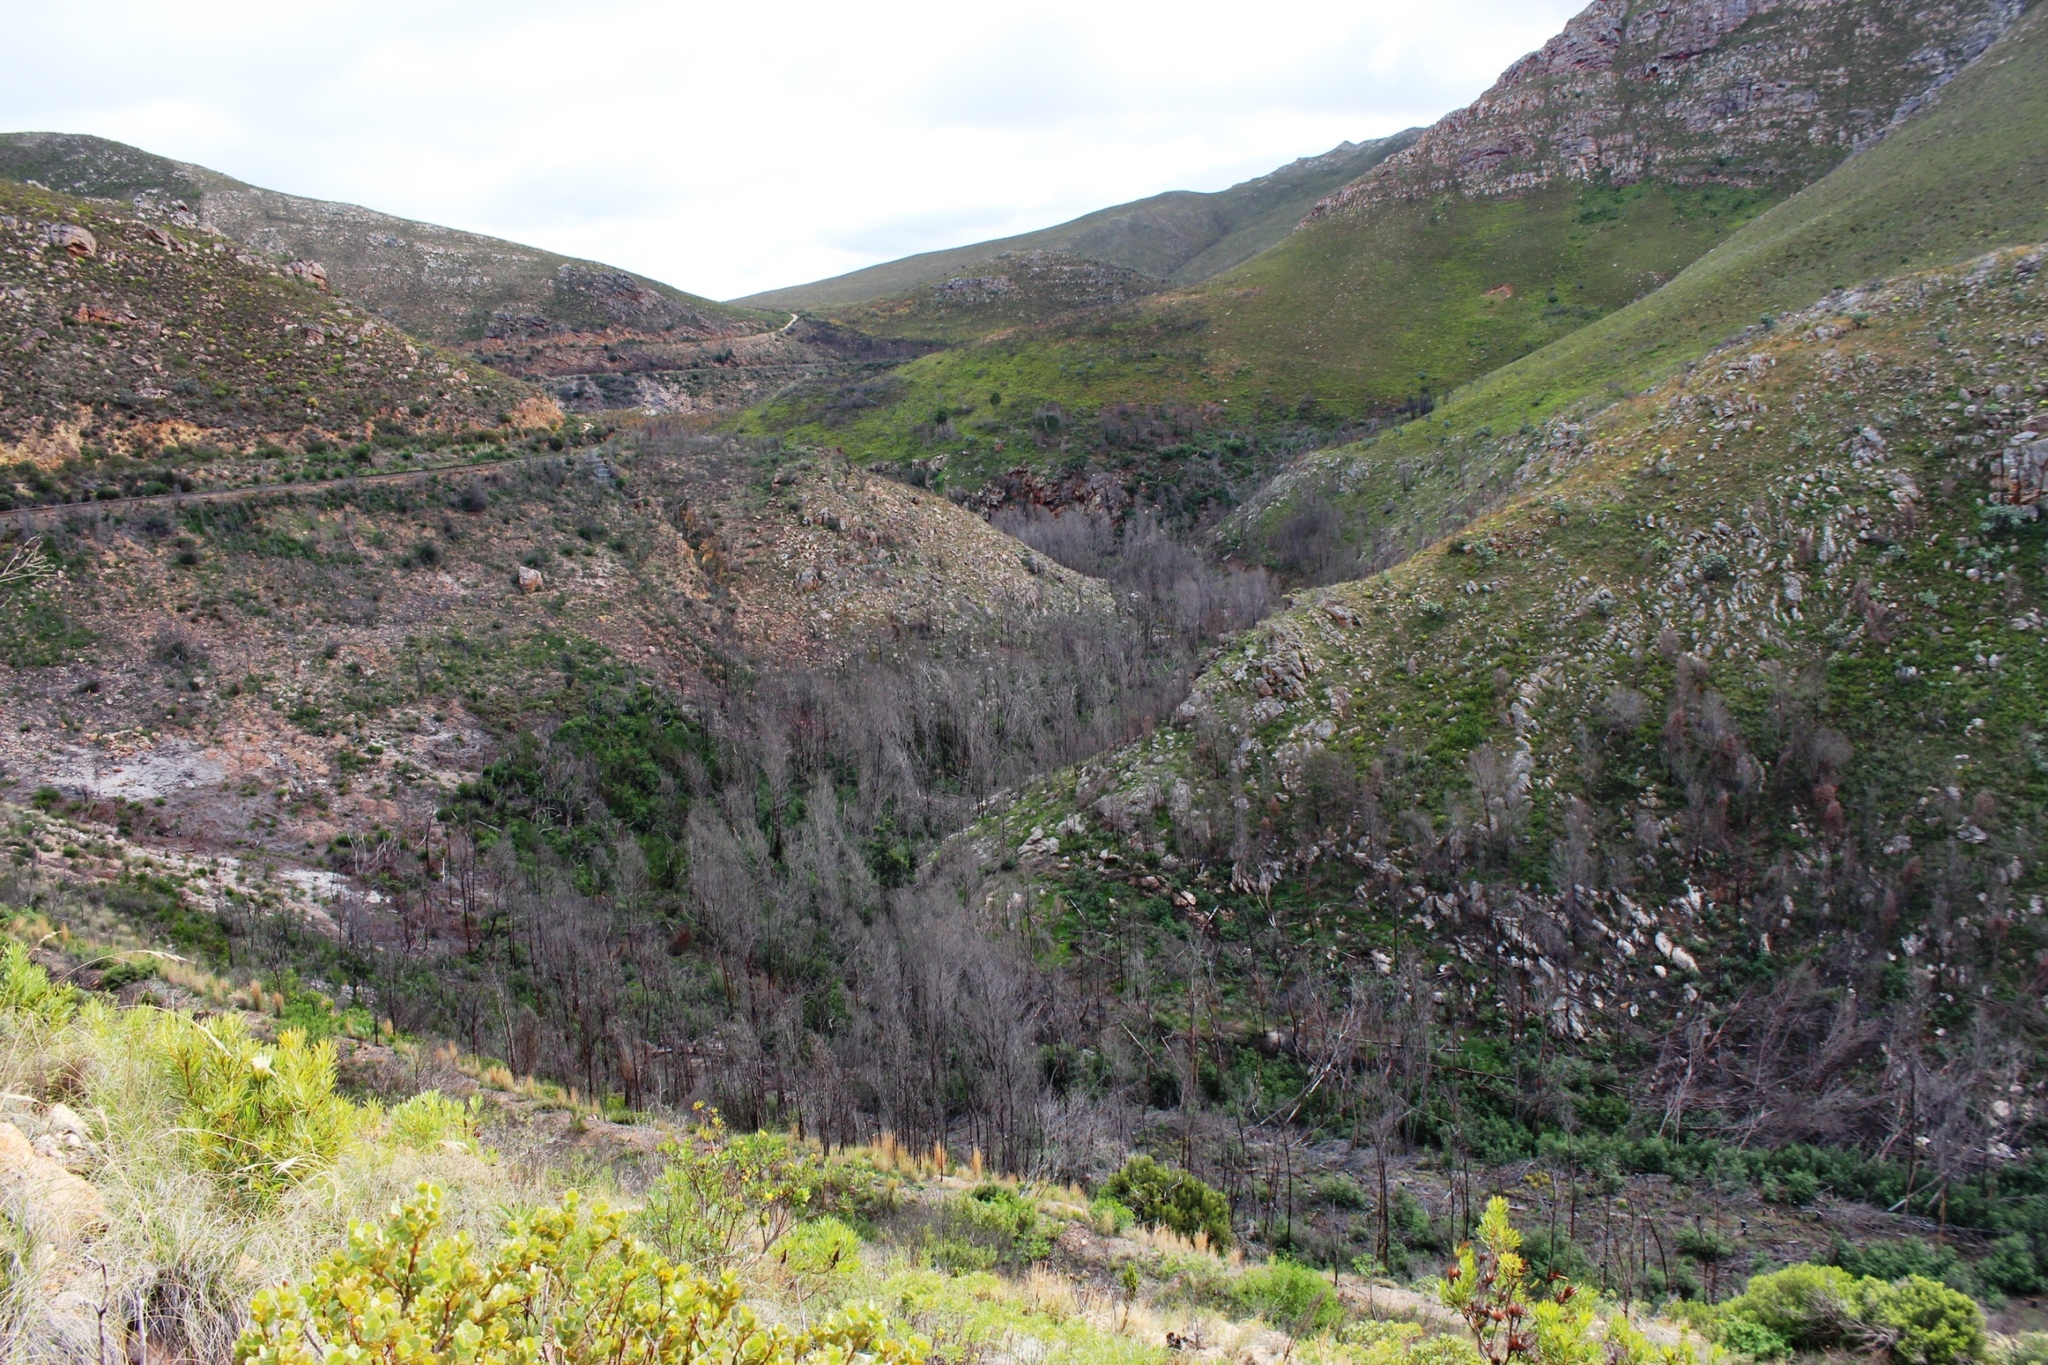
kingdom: Plantae
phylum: Tracheophyta
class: Magnoliopsida
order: Fabales
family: Fabaceae
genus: Acacia
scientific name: Acacia mearnsii
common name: Black wattle
